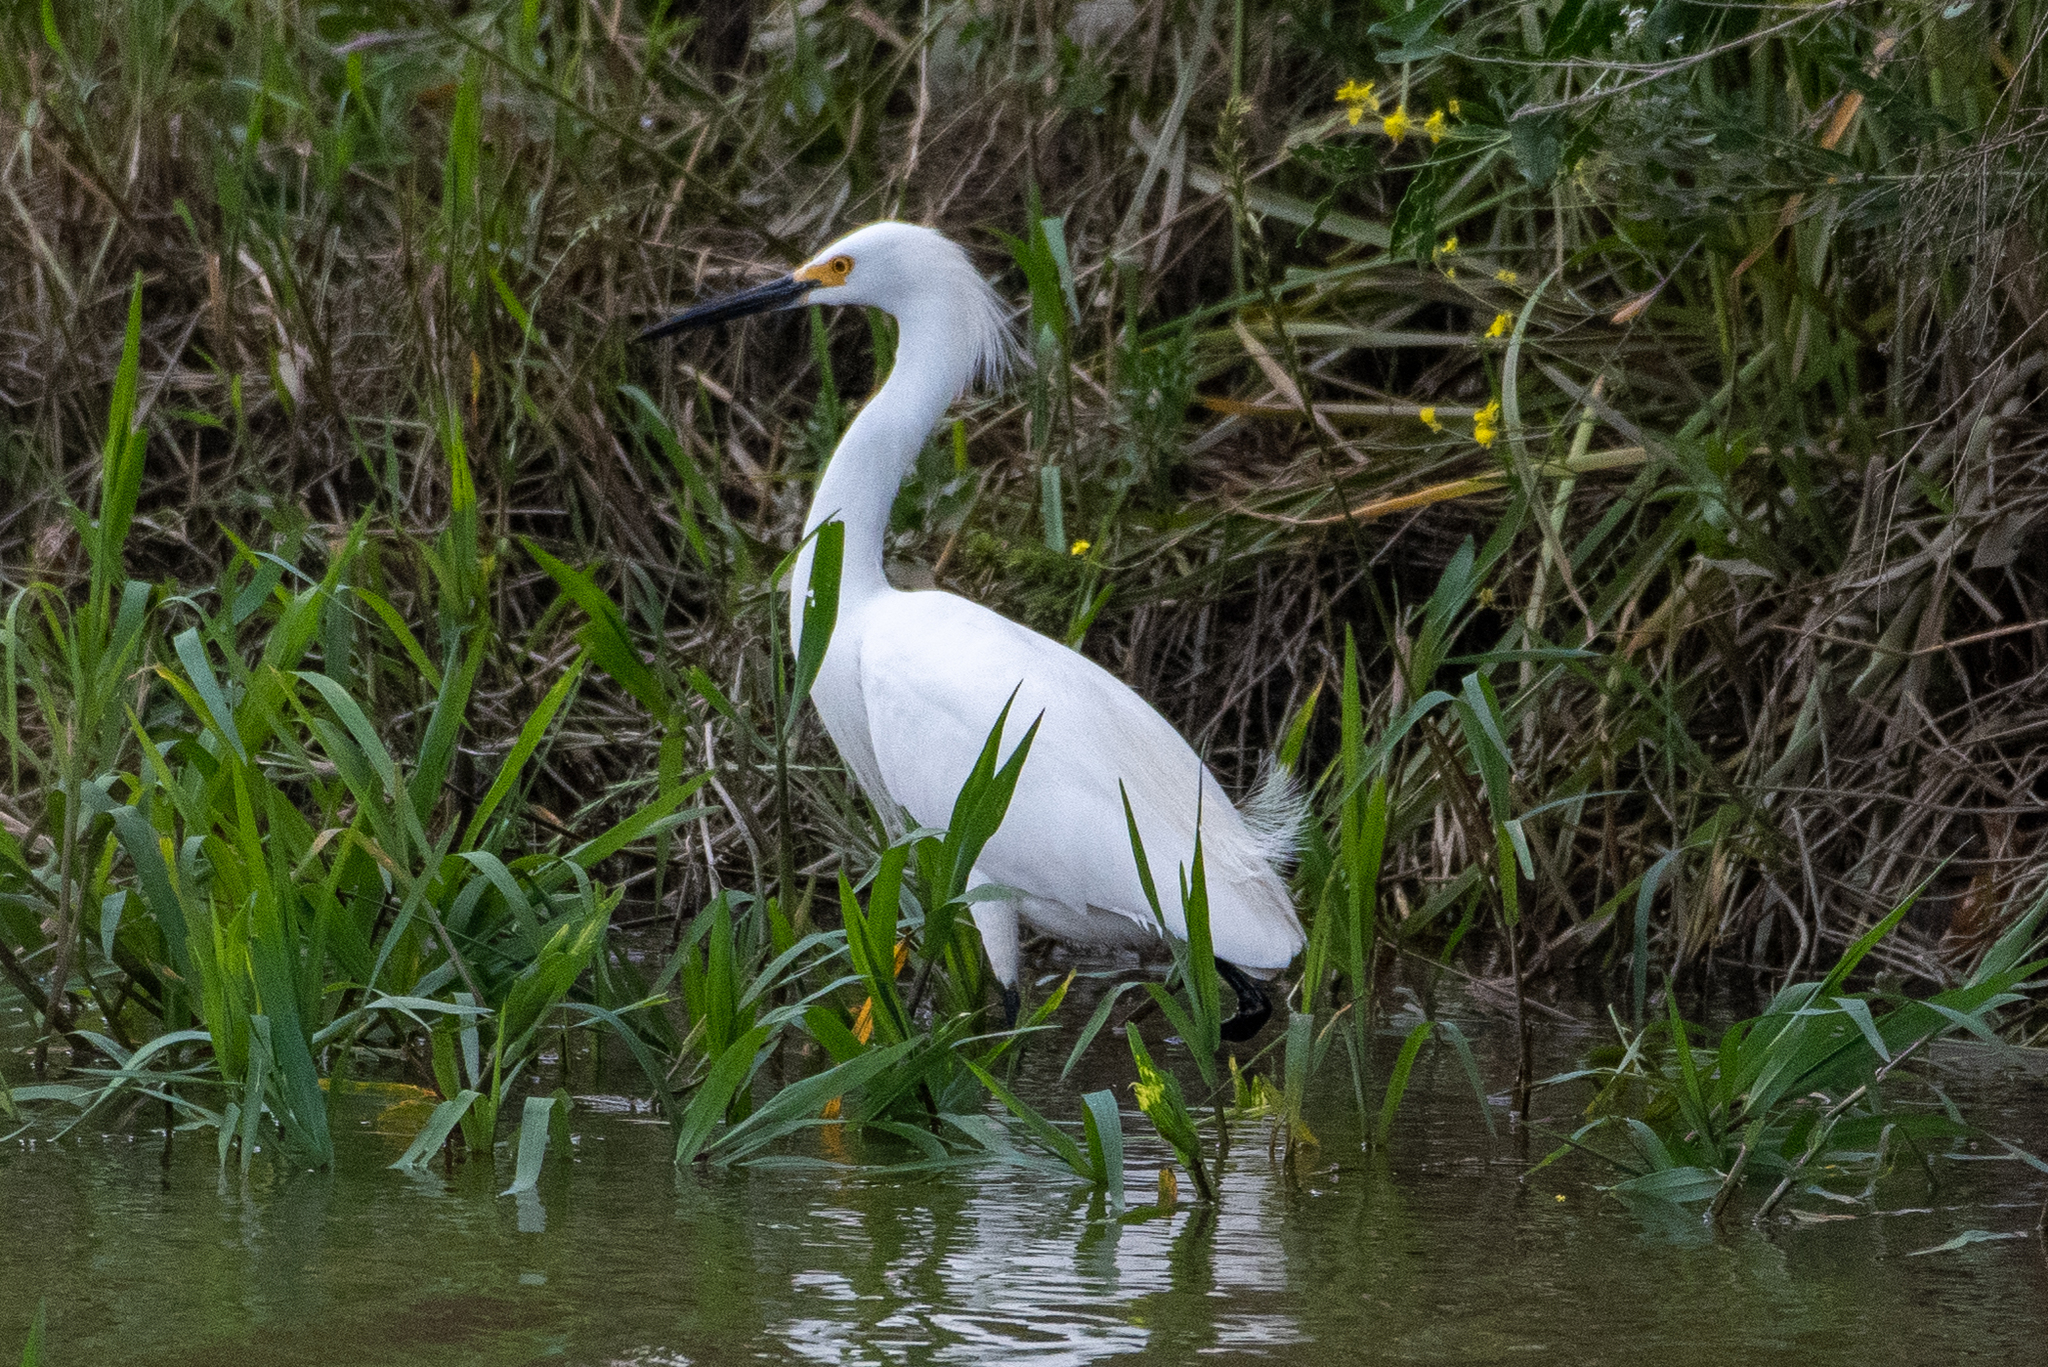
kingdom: Animalia
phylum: Chordata
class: Aves
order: Pelecaniformes
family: Ardeidae
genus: Egretta
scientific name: Egretta thula
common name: Snowy egret
